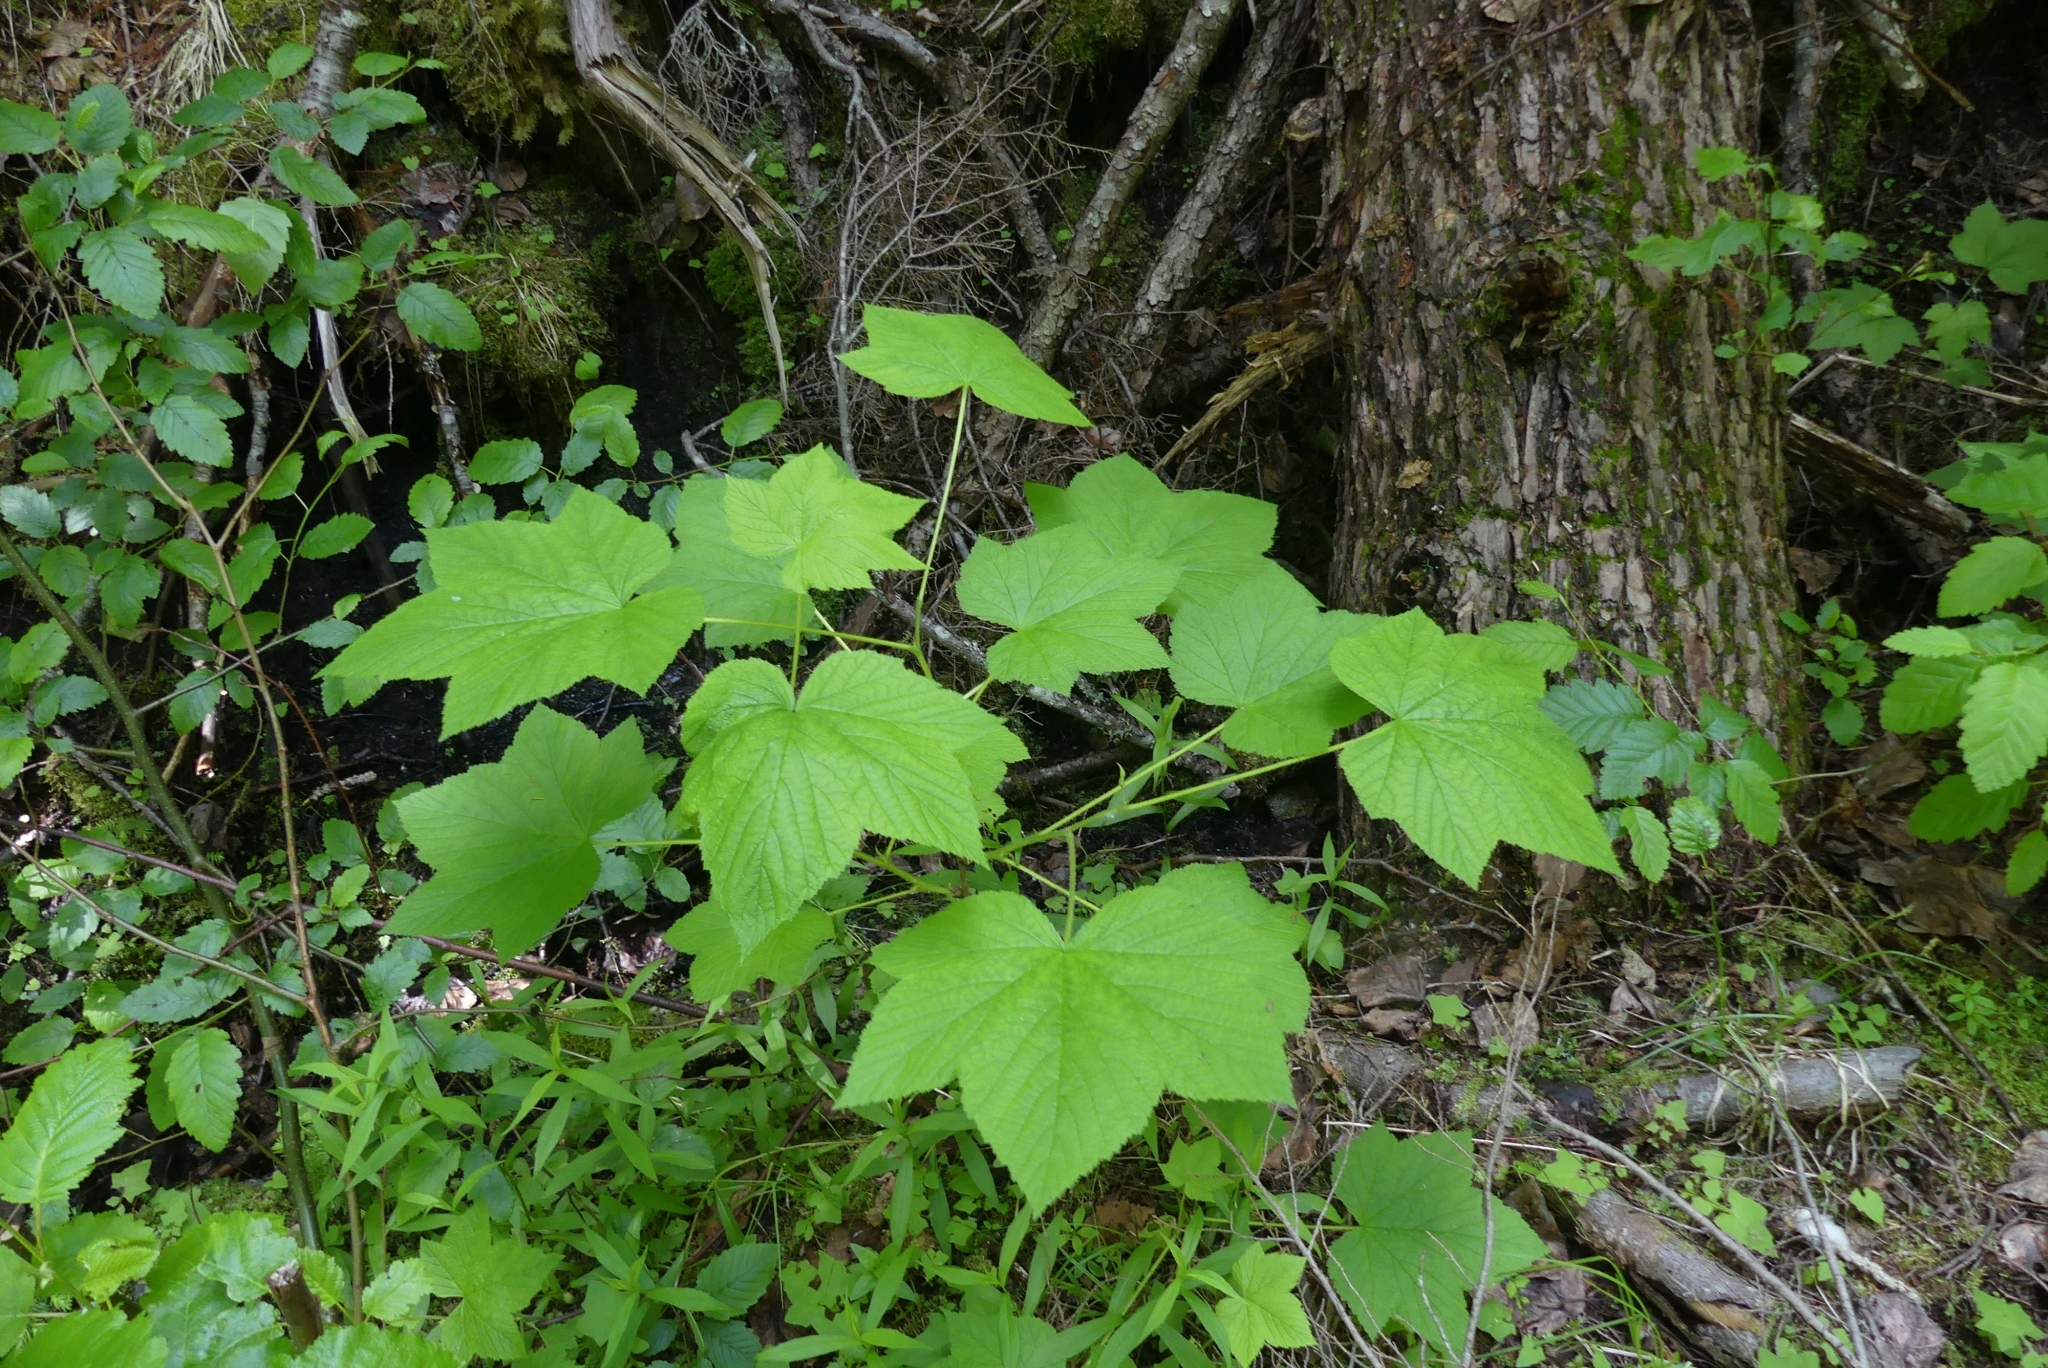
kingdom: Plantae
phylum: Tracheophyta
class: Magnoliopsida
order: Rosales
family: Rosaceae
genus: Rubus
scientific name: Rubus parviflorus
